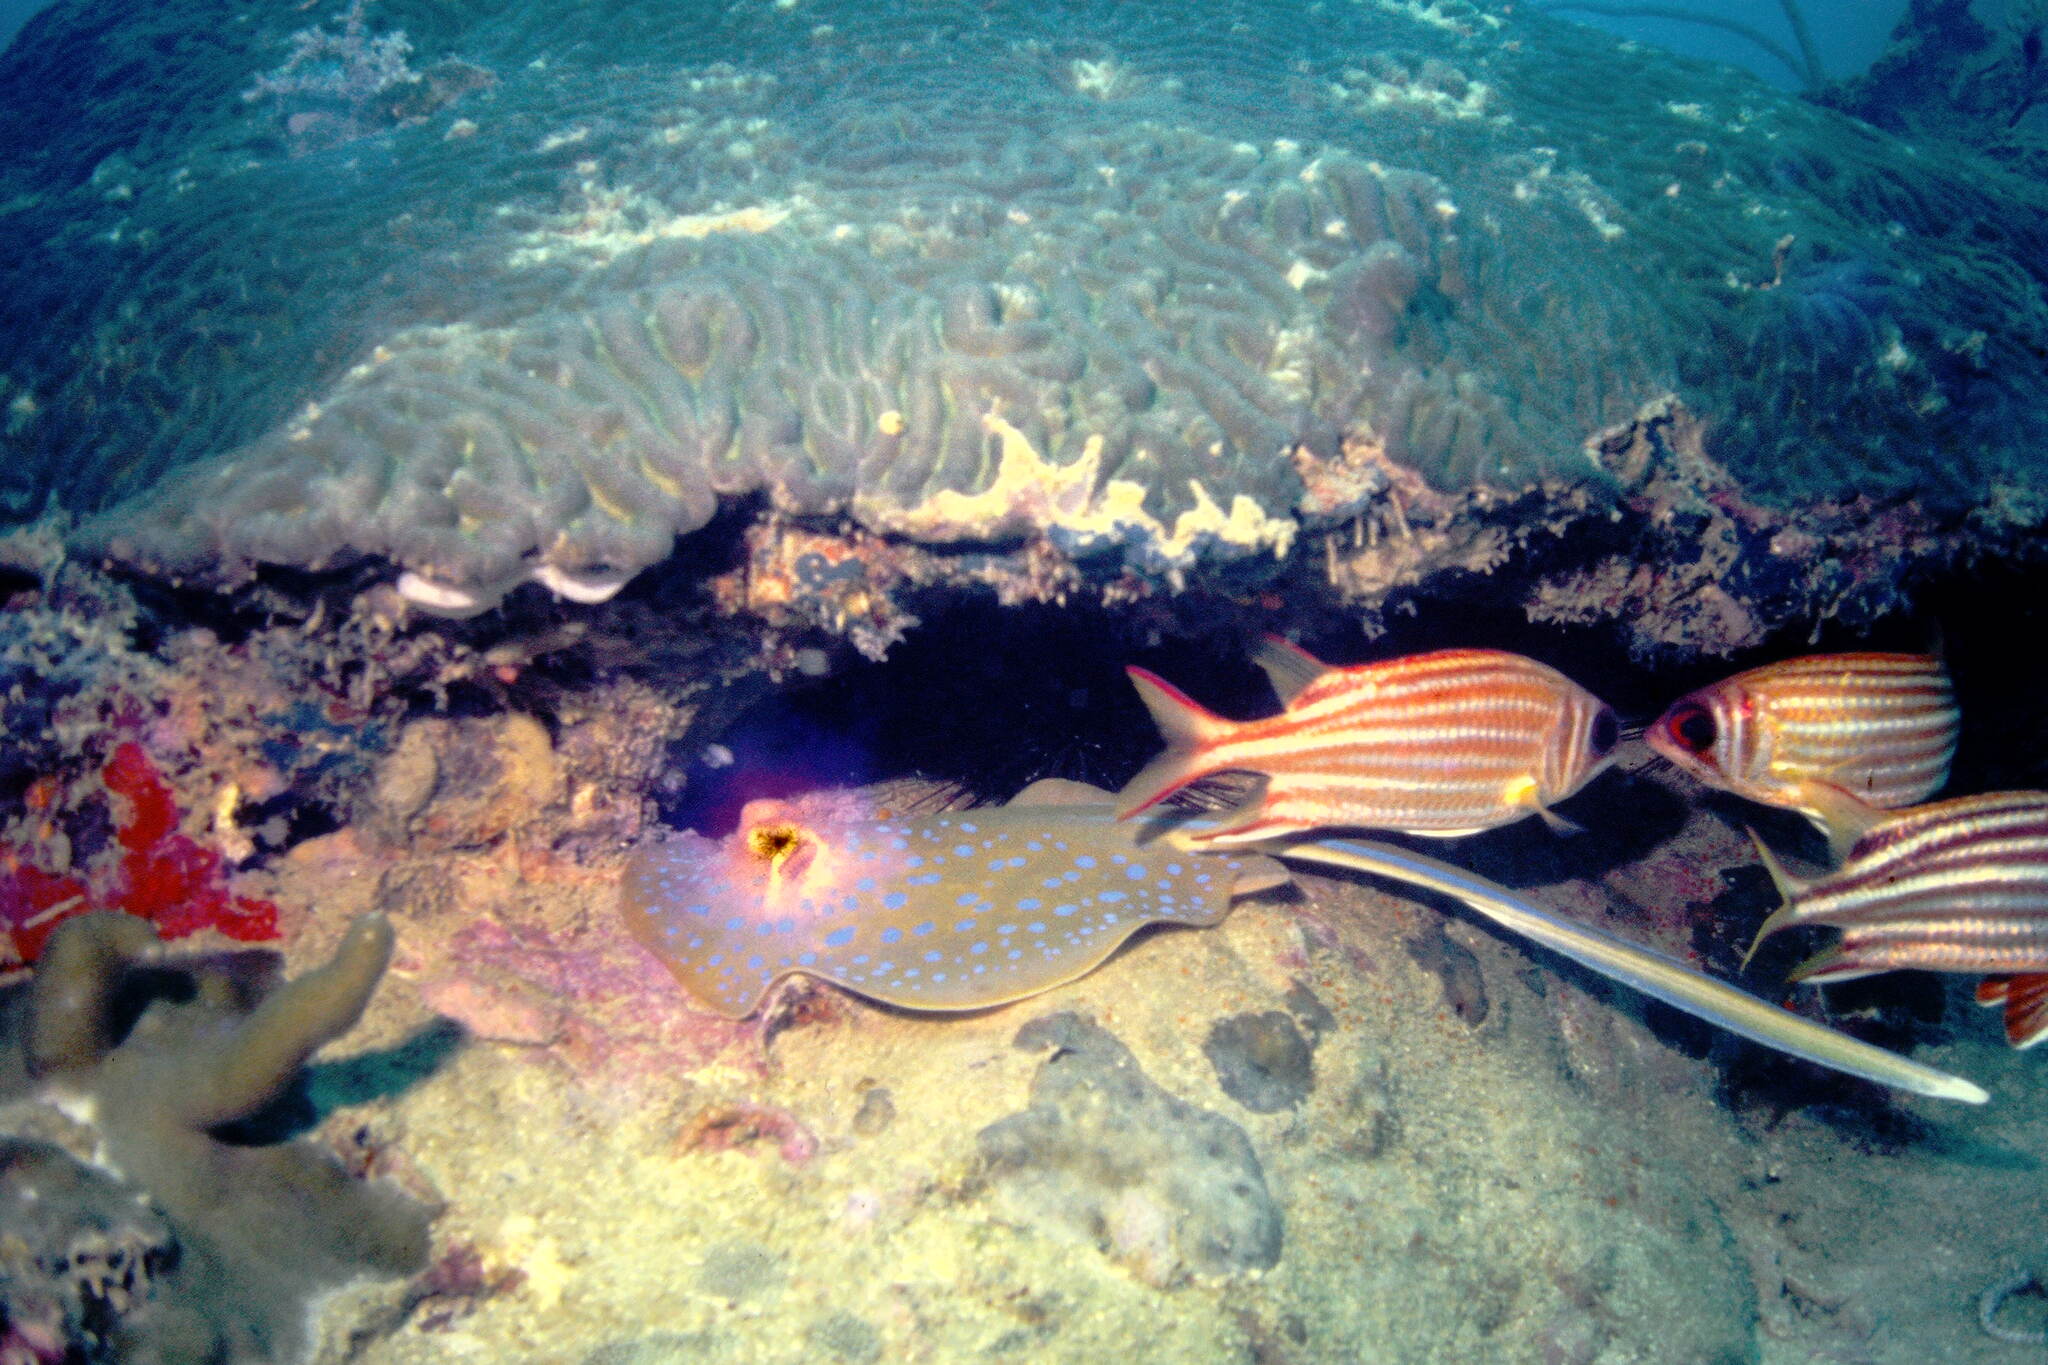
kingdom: Animalia
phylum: Chordata
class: Elasmobranchii
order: Myliobatiformes
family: Dasyatidae
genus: Taeniura
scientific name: Taeniura lymma
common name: Bluespotted ribbontail ray
